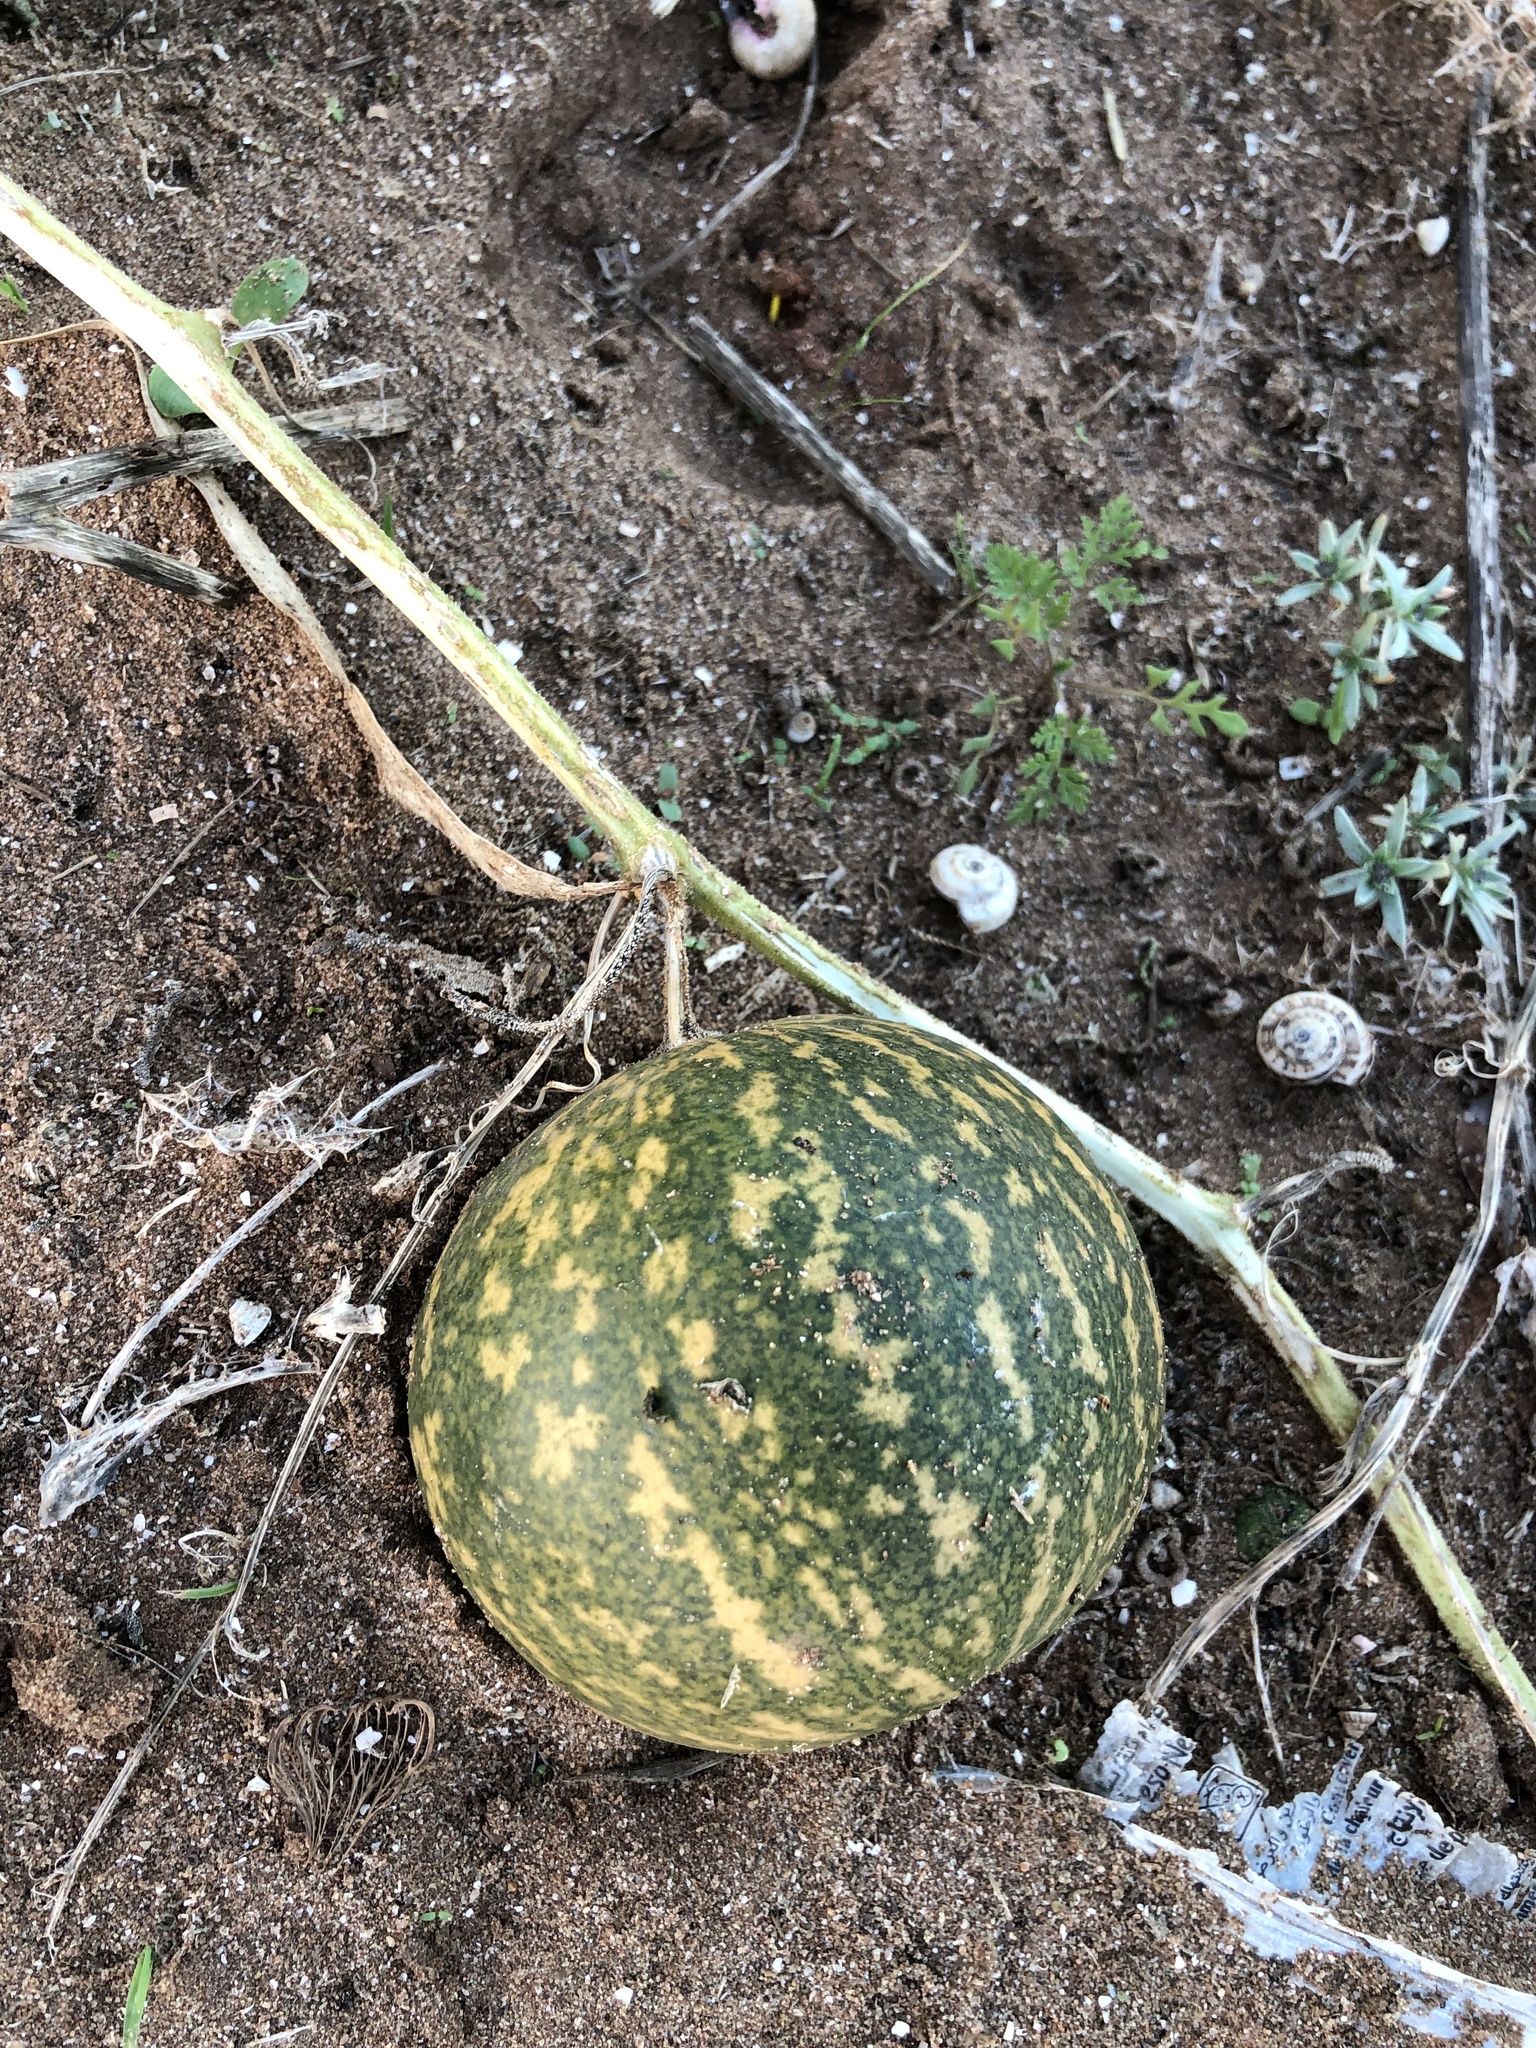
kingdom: Plantae
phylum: Tracheophyta
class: Magnoliopsida
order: Cucurbitales
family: Cucurbitaceae
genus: Citrullus
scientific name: Citrullus colocynthis
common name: Colocynth
